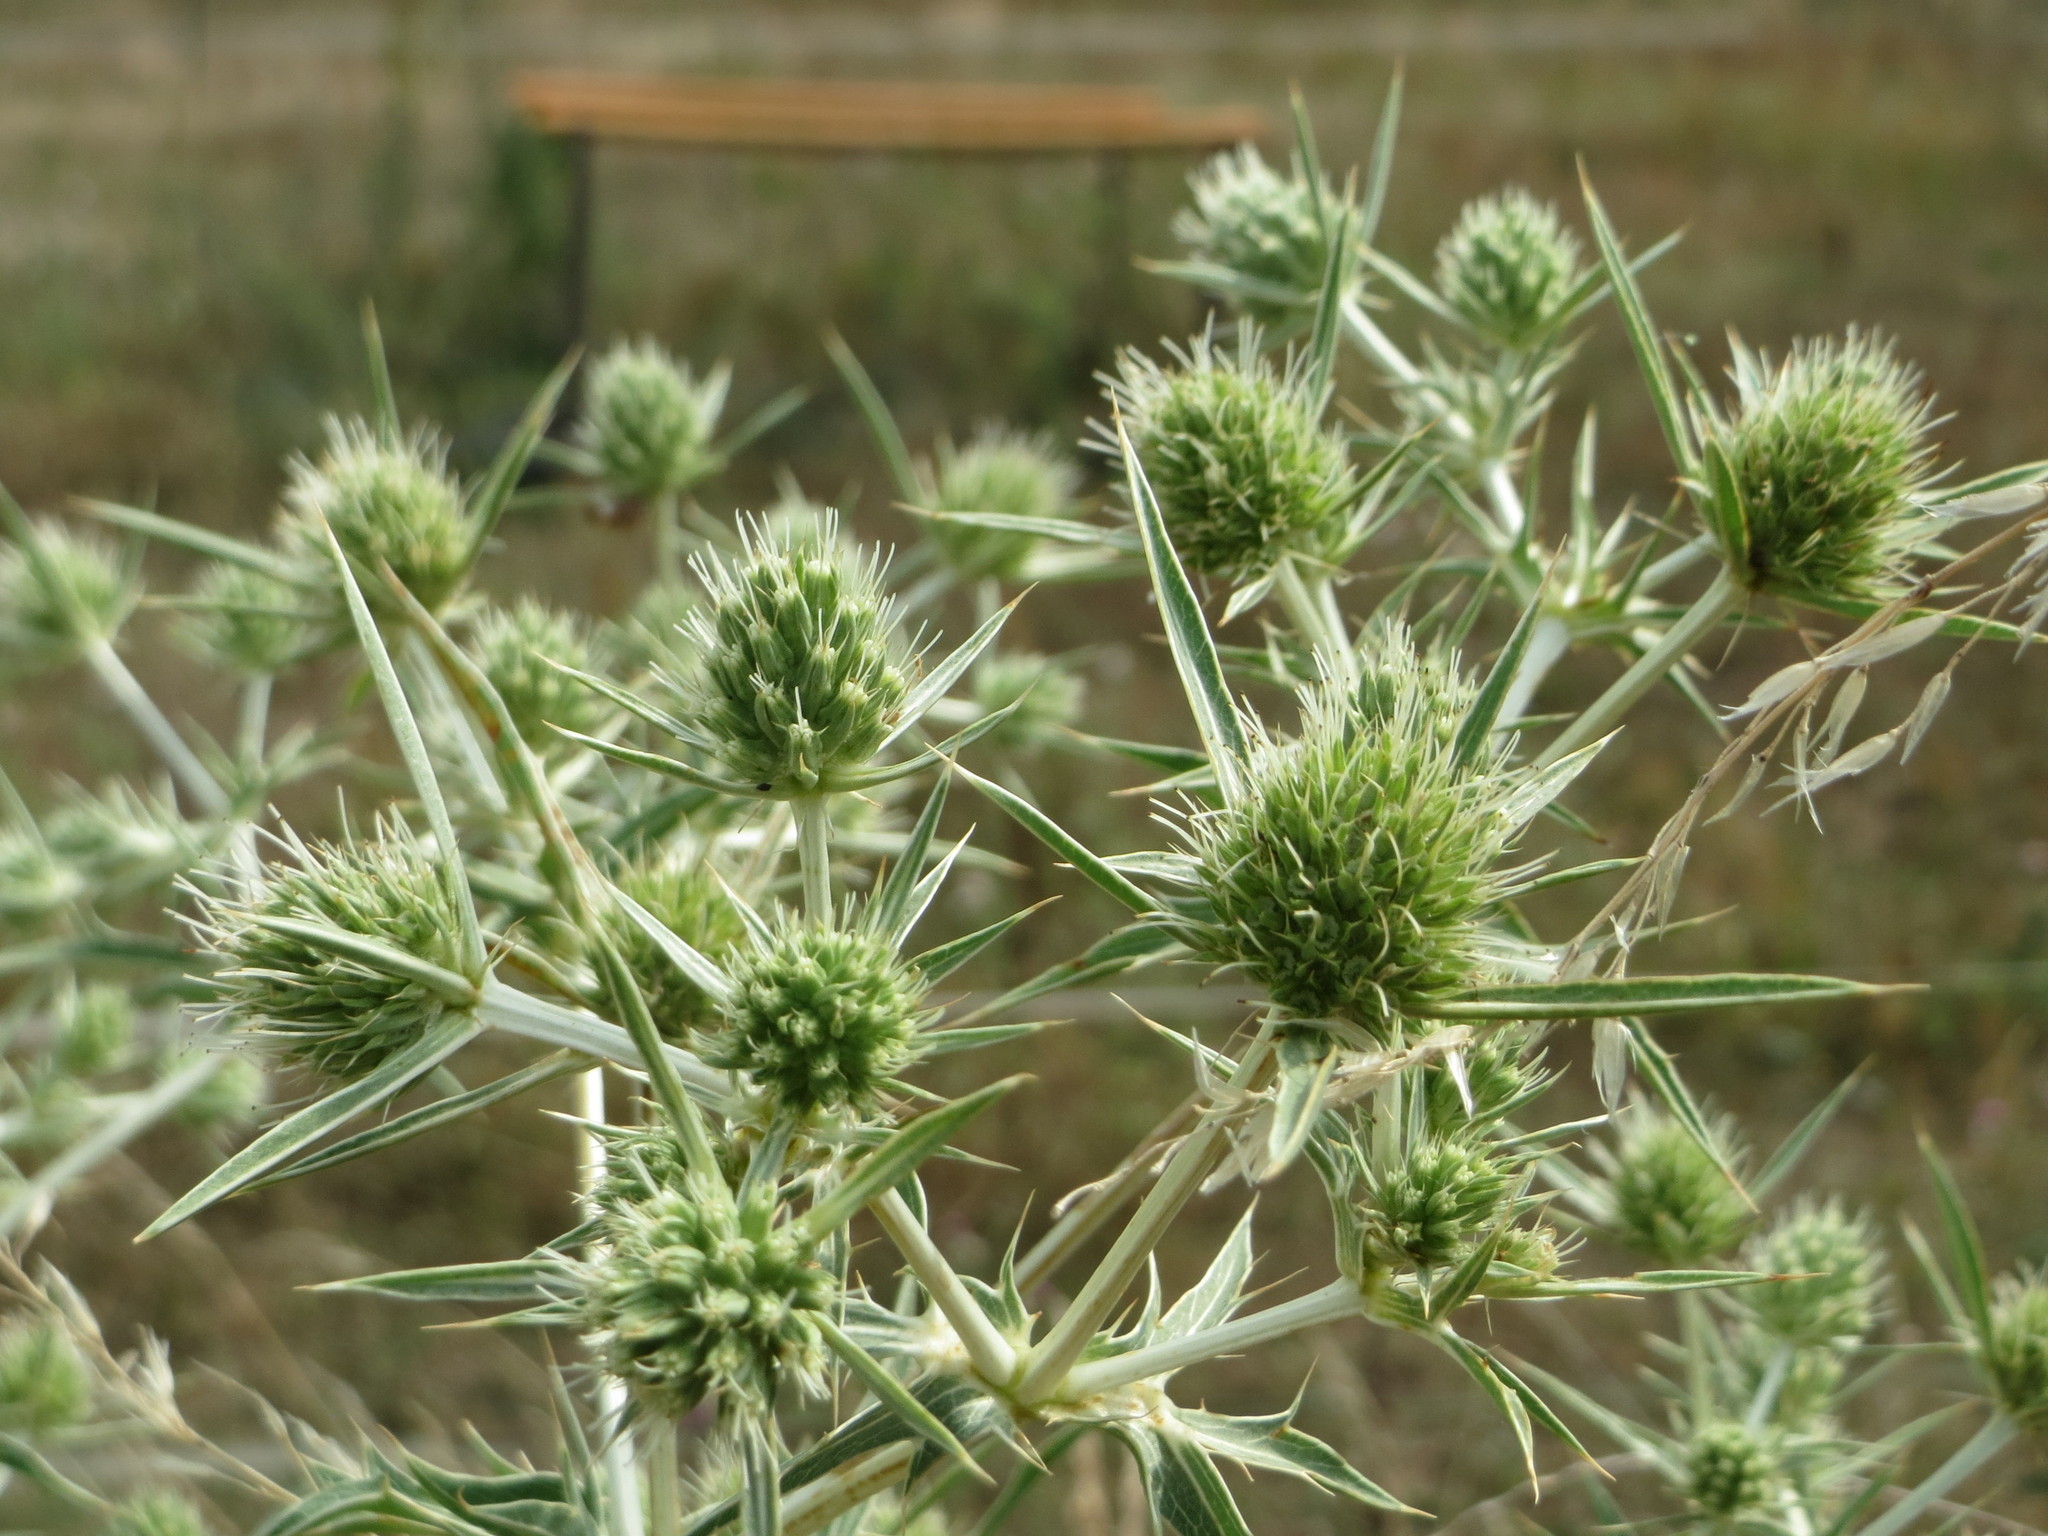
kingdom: Plantae
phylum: Tracheophyta
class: Magnoliopsida
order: Apiales
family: Apiaceae
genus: Eryngium
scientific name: Eryngium campestre
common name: Field eryngo
